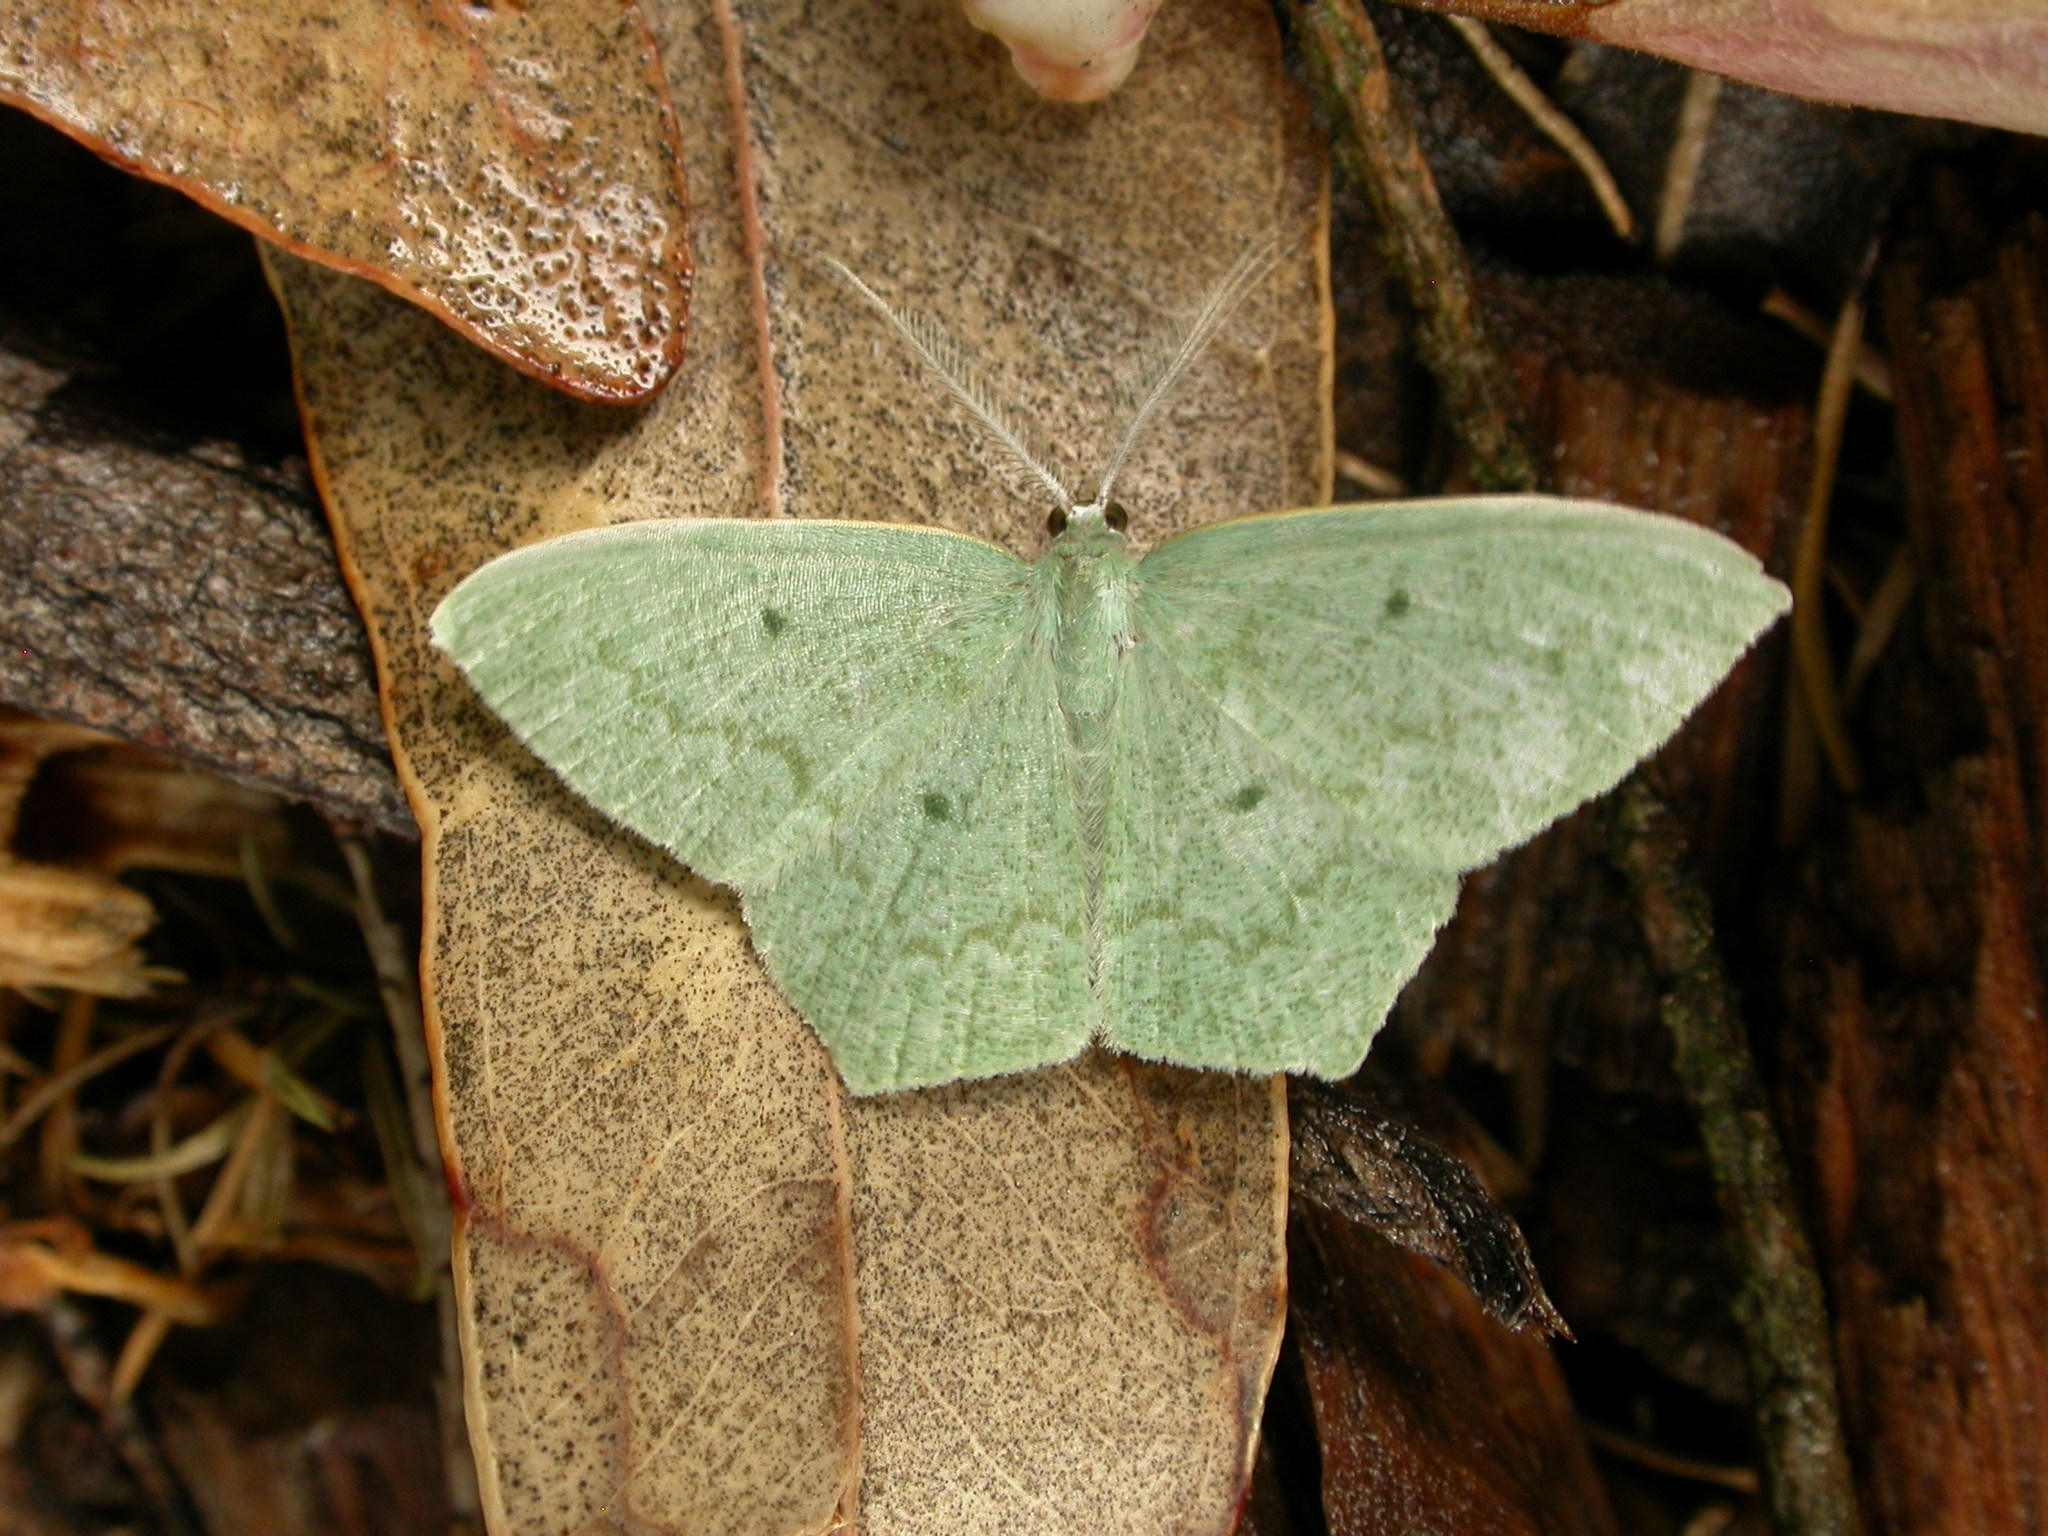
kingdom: Animalia
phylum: Arthropoda
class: Insecta
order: Lepidoptera
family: Geometridae
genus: Maxates
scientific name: Maxates centrophylla
